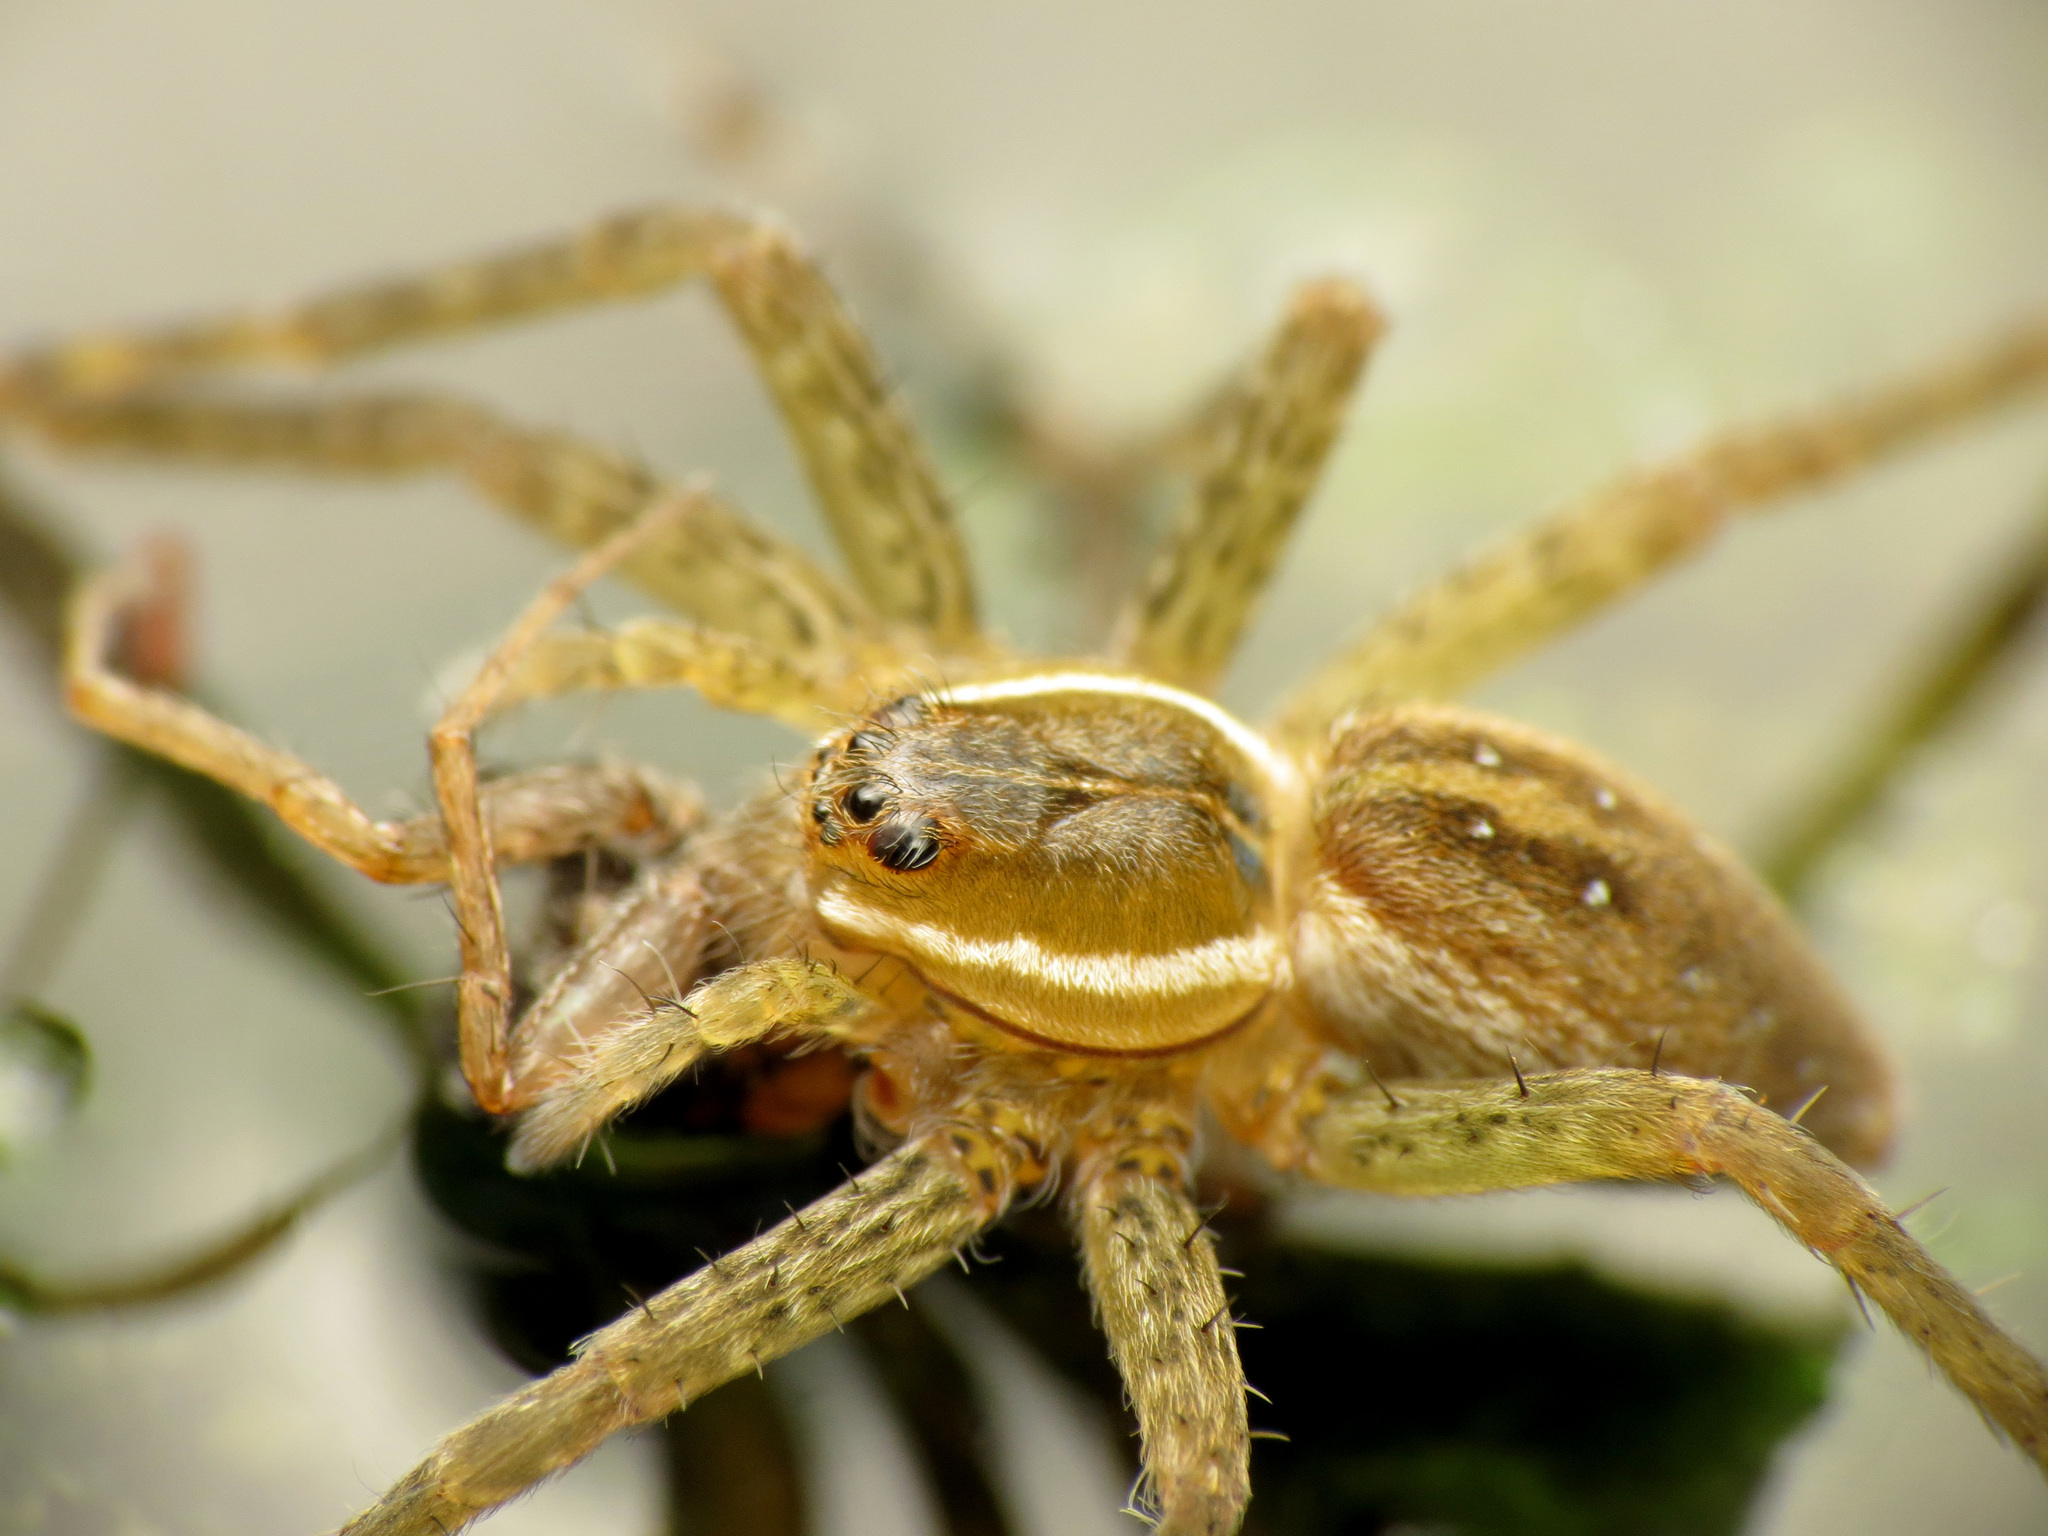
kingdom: Animalia
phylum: Arthropoda
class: Arachnida
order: Araneae
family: Pisauridae
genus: Dolomedes
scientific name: Dolomedes triton
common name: Six-spotted fishing spider
